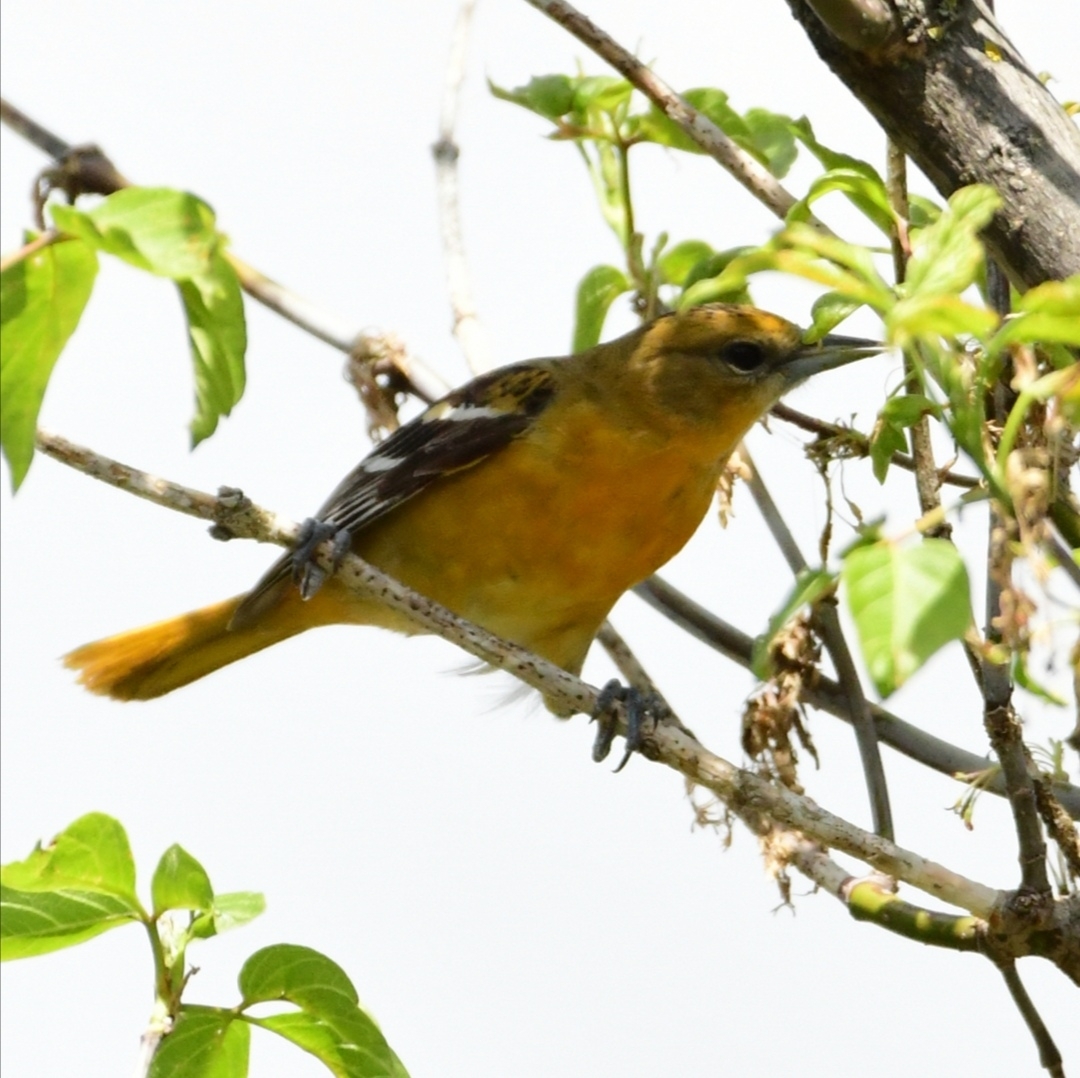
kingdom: Animalia
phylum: Chordata
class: Aves
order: Passeriformes
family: Icteridae
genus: Icterus
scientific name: Icterus galbula
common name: Baltimore oriole
